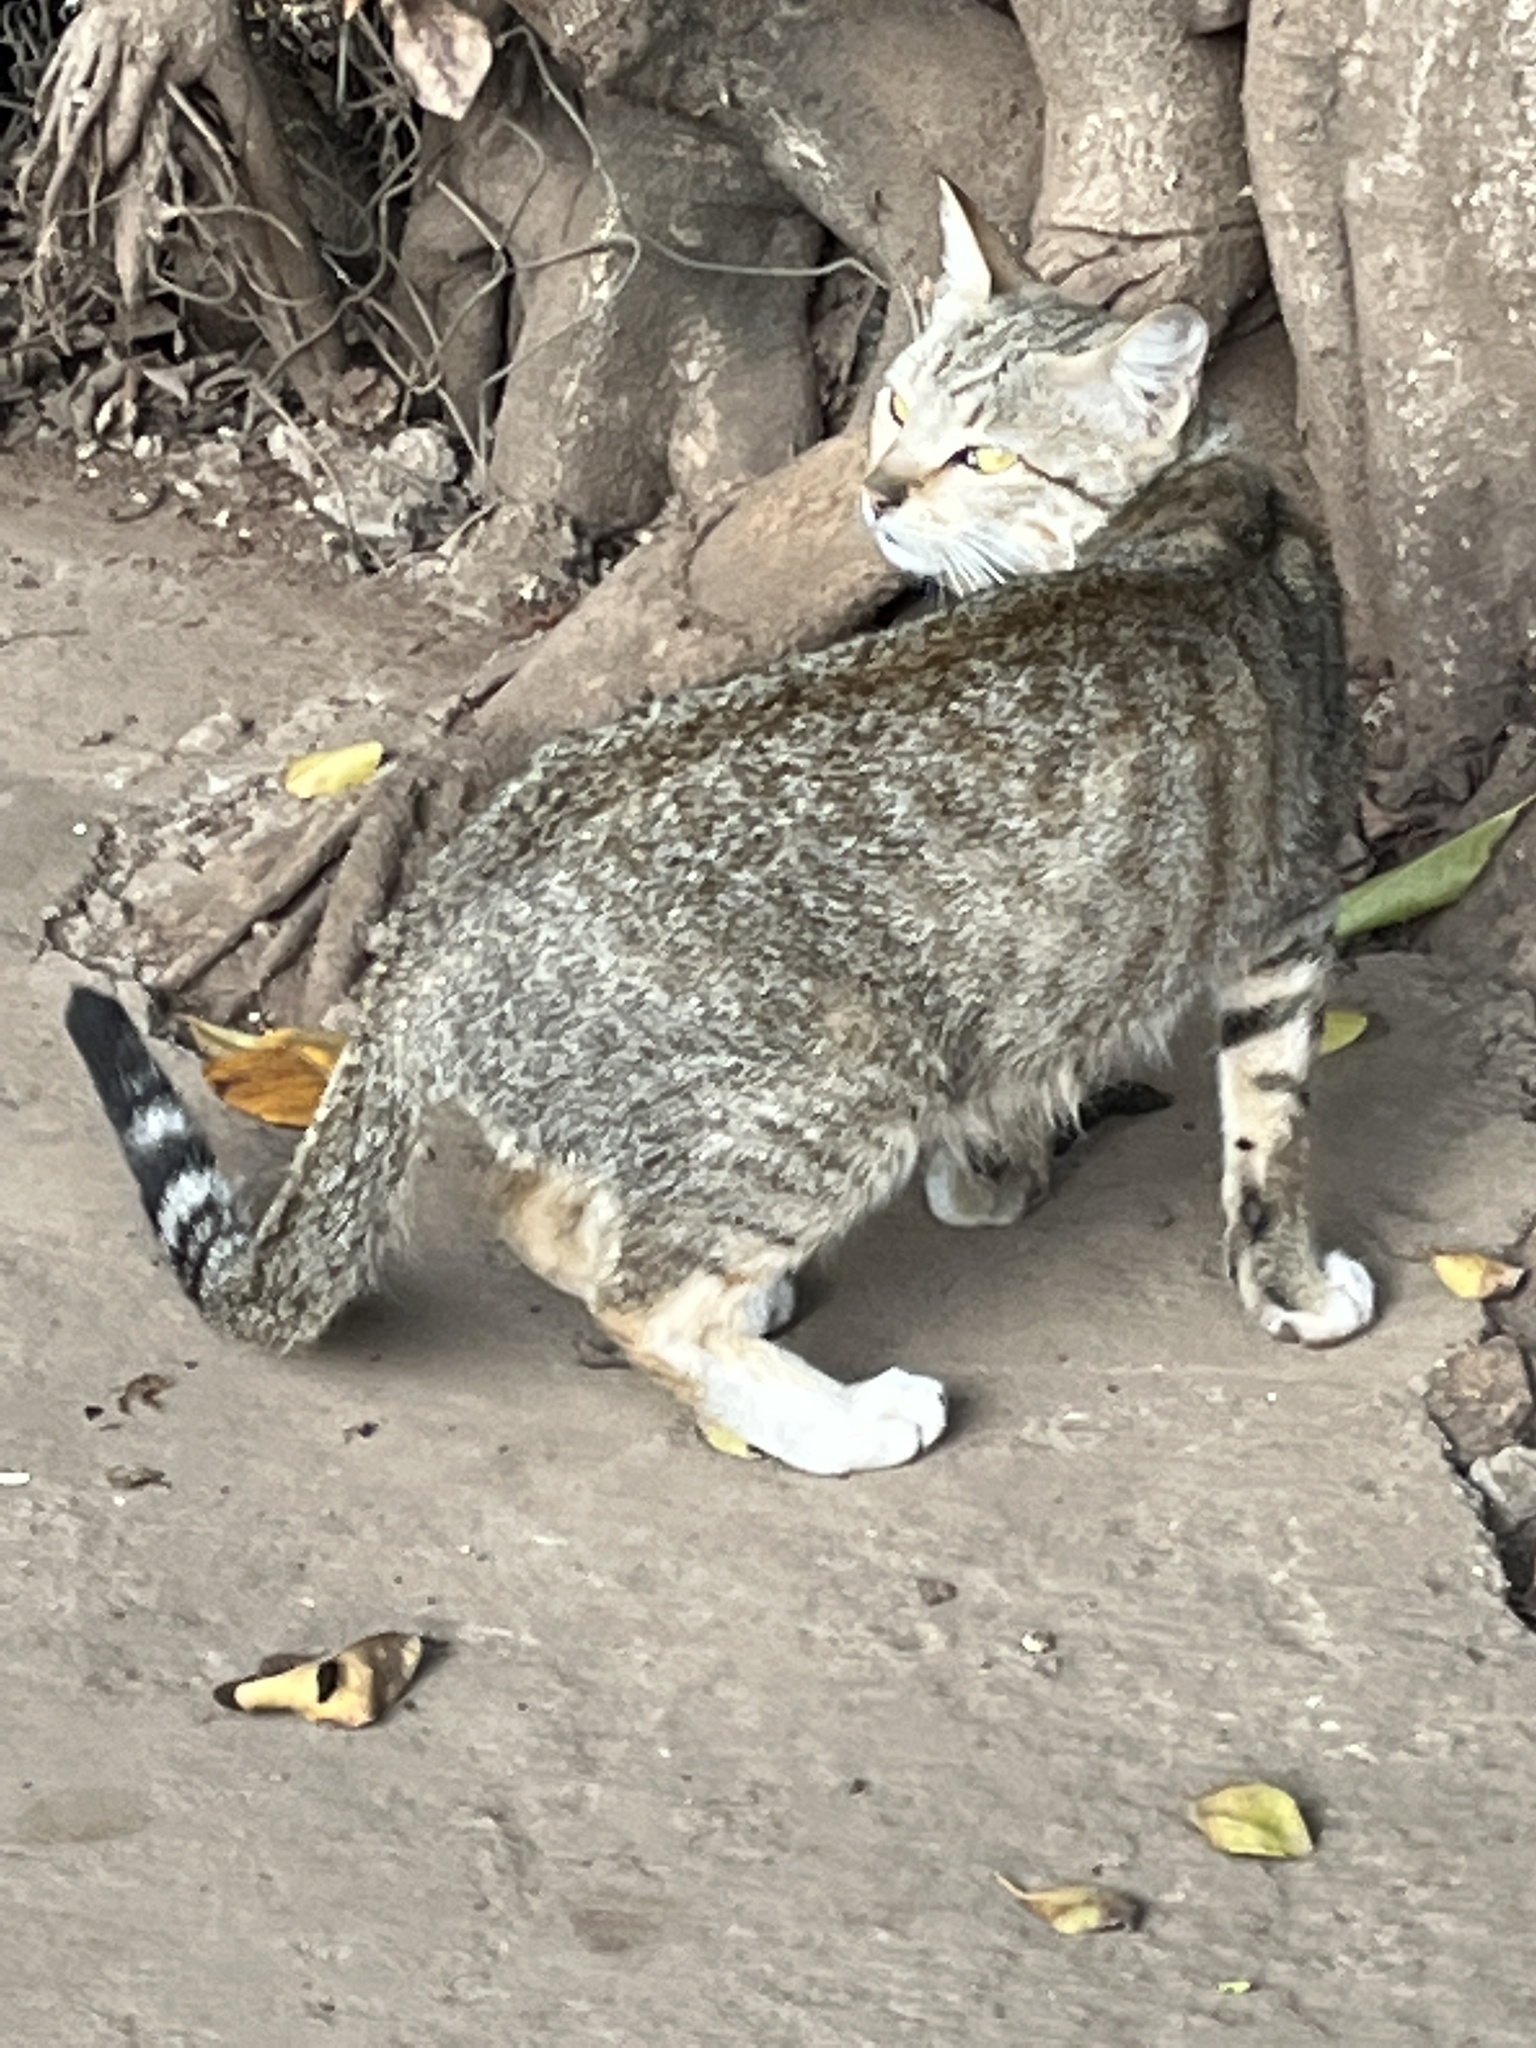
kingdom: Animalia
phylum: Chordata
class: Mammalia
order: Carnivora
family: Felidae
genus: Felis
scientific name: Felis catus
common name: Domestic cat
